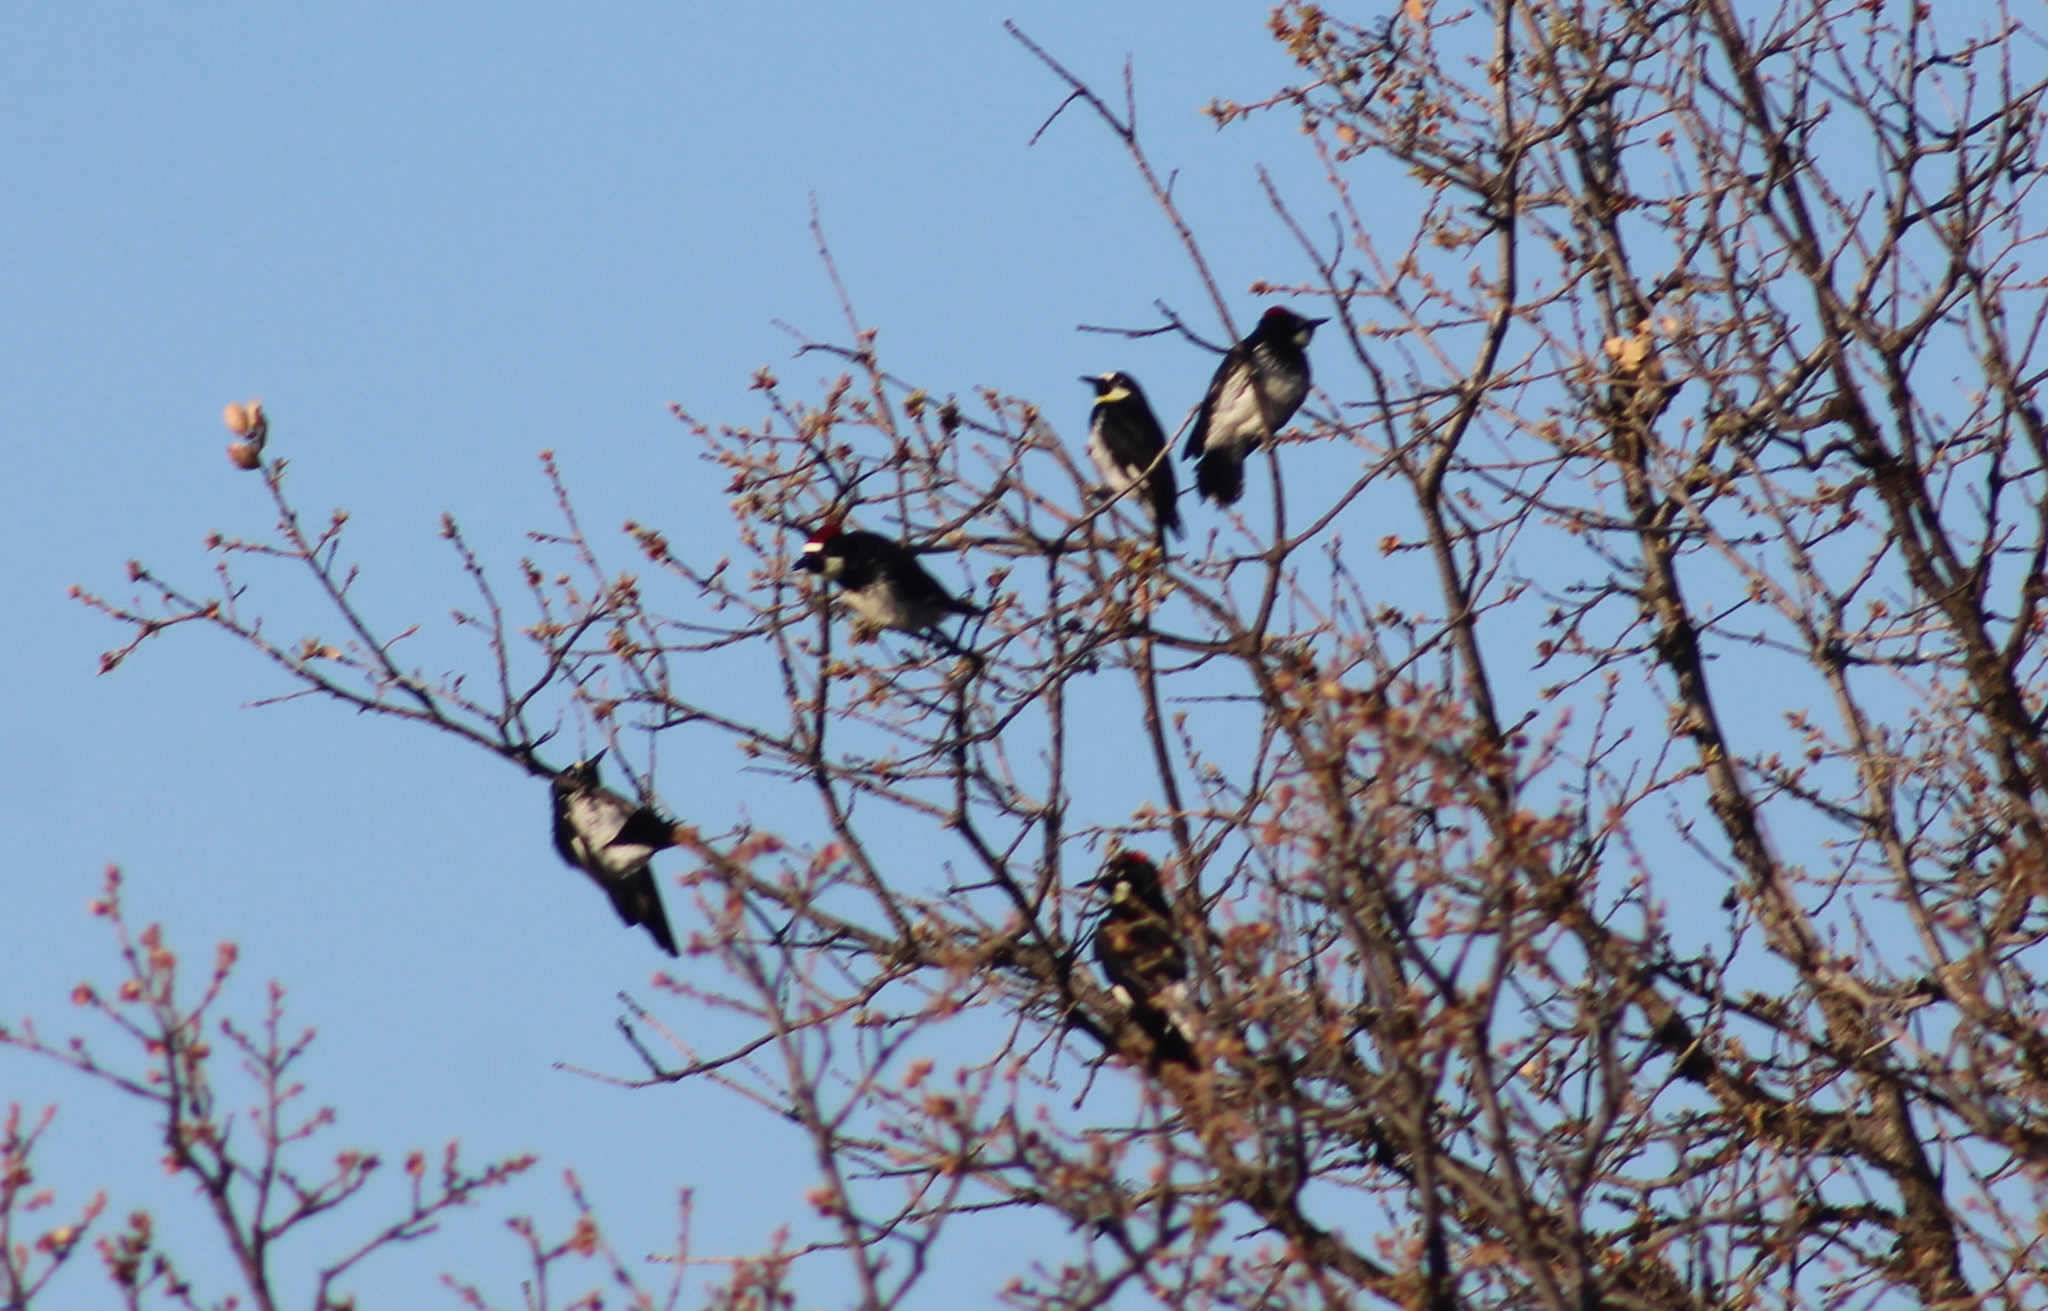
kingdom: Animalia
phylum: Chordata
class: Aves
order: Piciformes
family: Picidae
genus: Melanerpes
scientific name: Melanerpes formicivorus
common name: Acorn woodpecker
